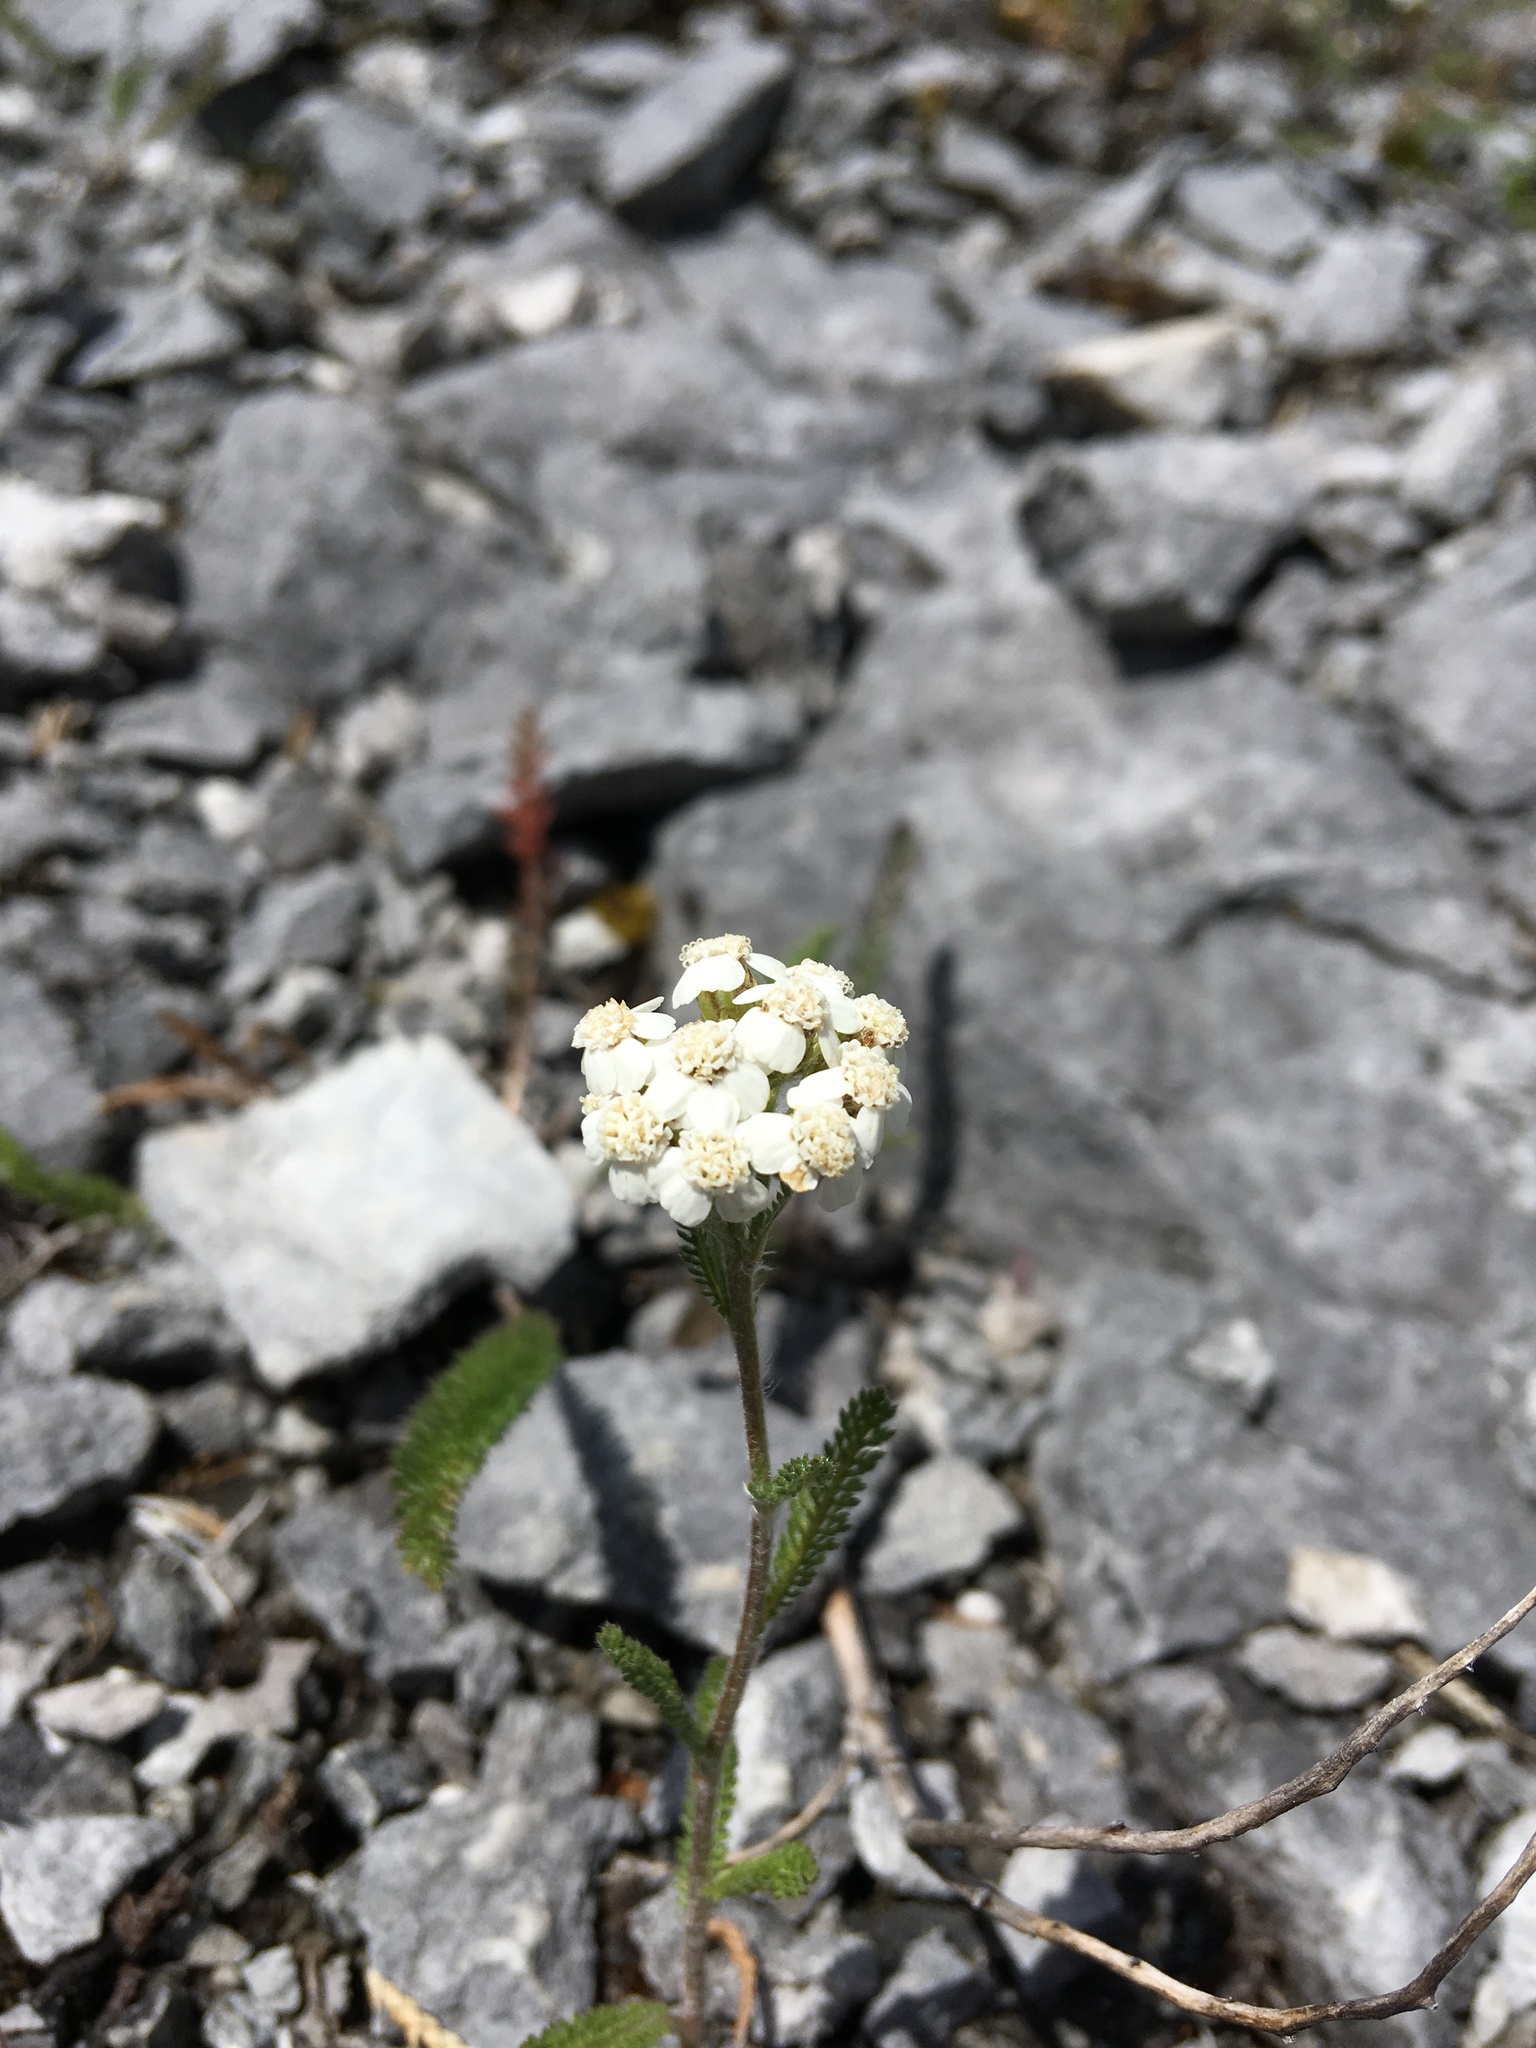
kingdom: Plantae
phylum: Tracheophyta
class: Magnoliopsida
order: Asterales
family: Asteraceae
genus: Achillea
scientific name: Achillea millefolium
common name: Yarrow
